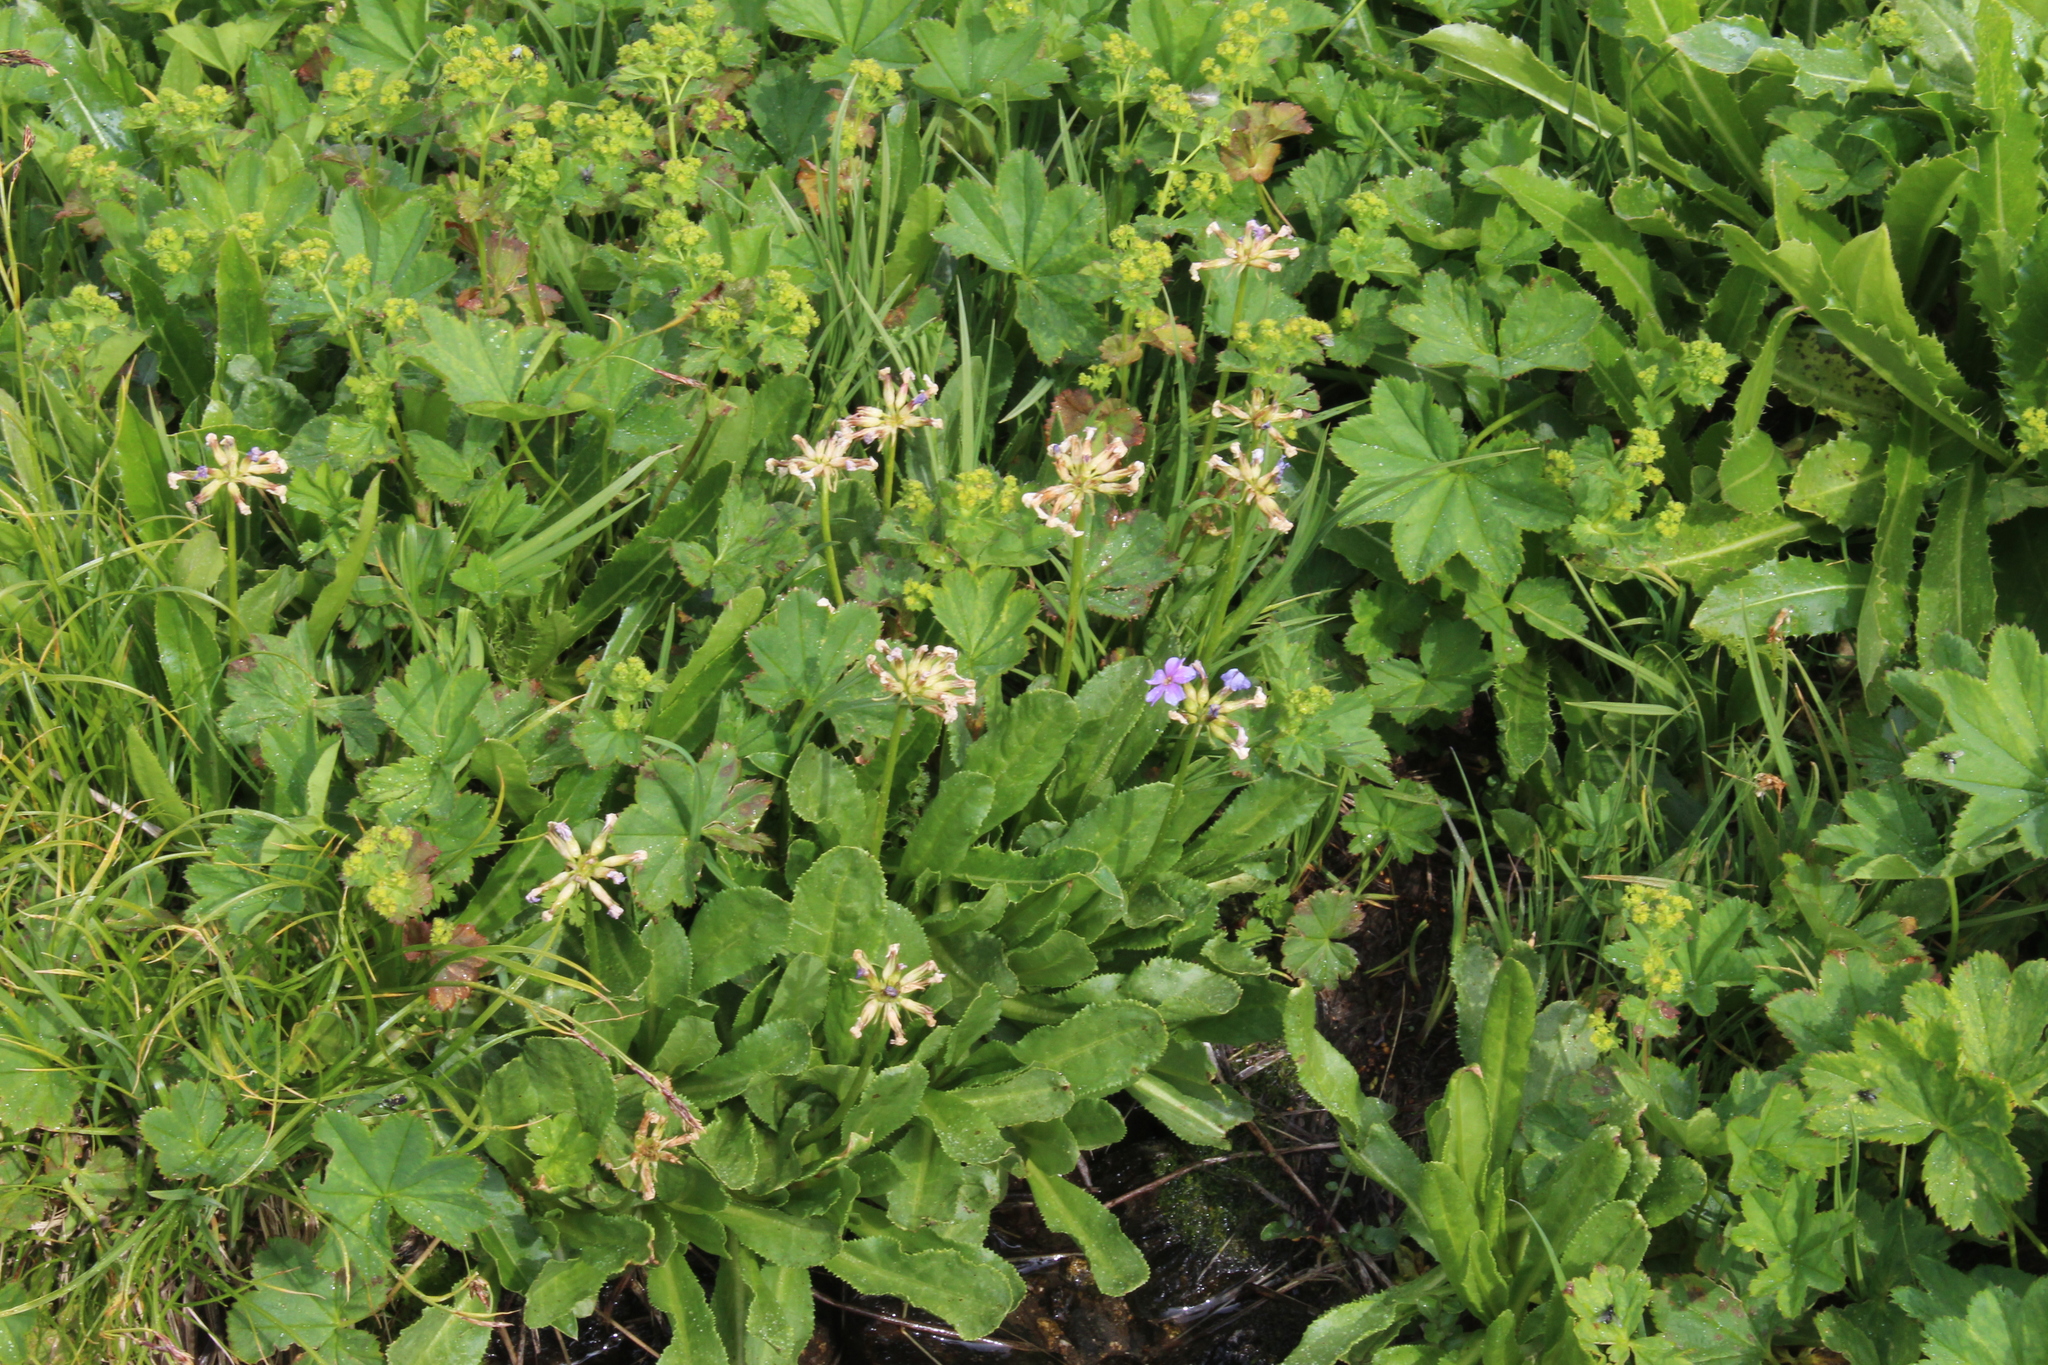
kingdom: Plantae
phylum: Tracheophyta
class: Magnoliopsida
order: Ericales
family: Primulaceae
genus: Primula
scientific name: Primula auriculata
